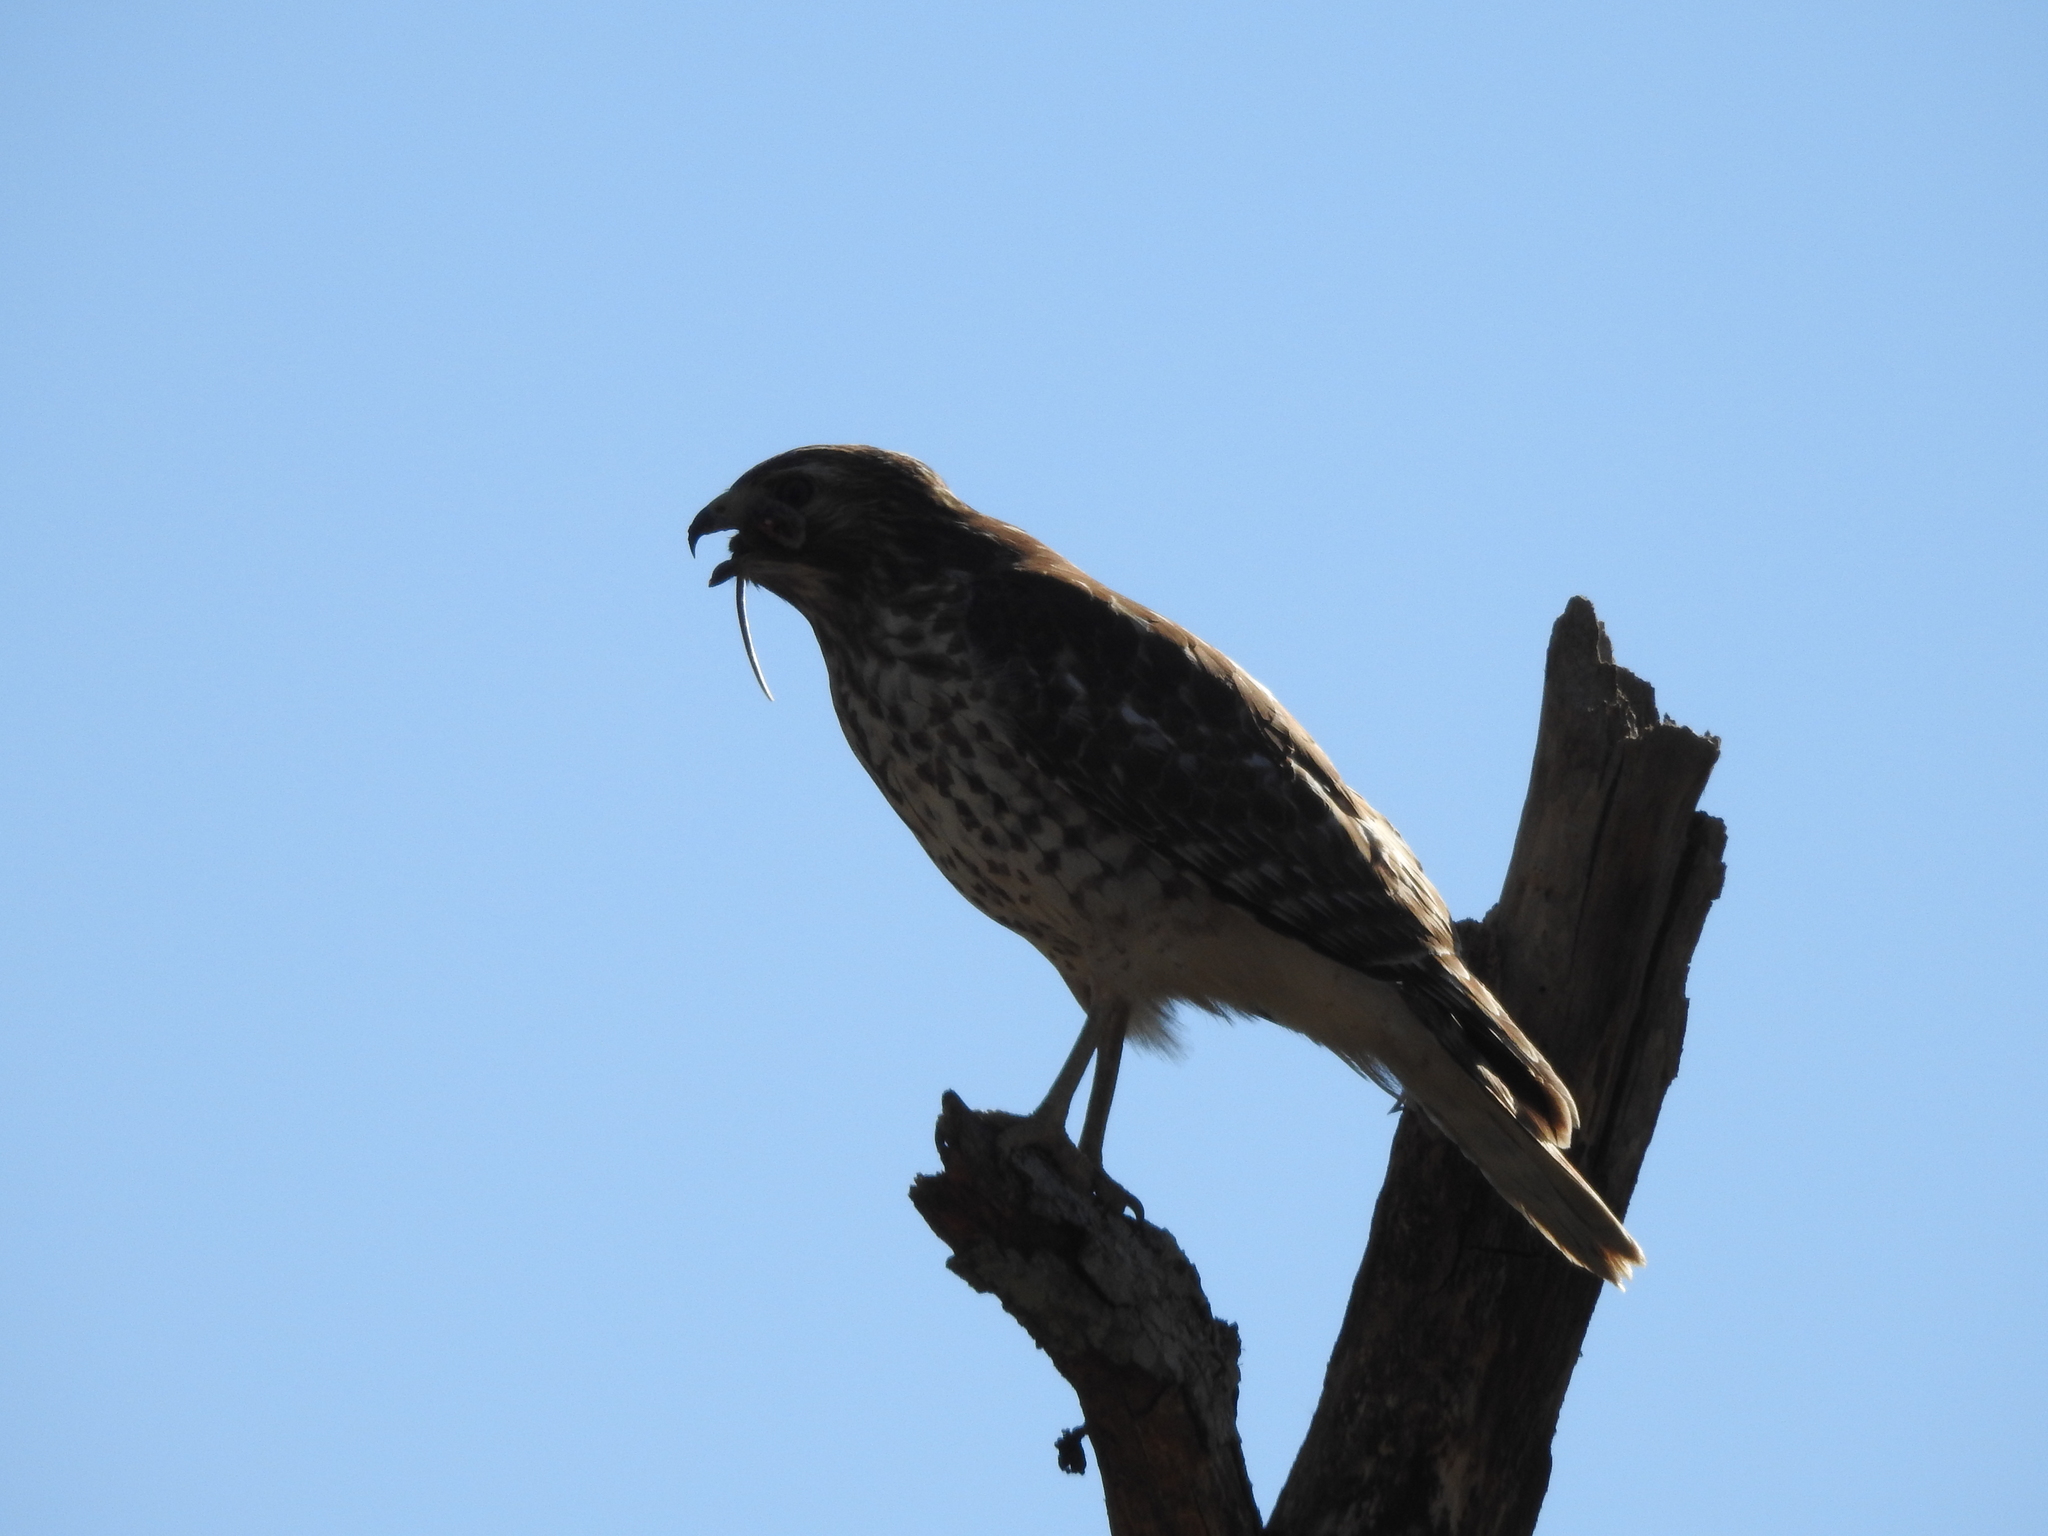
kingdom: Animalia
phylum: Chordata
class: Aves
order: Accipitriformes
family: Accipitridae
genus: Buteo
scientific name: Buteo lineatus
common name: Red-shouldered hawk
